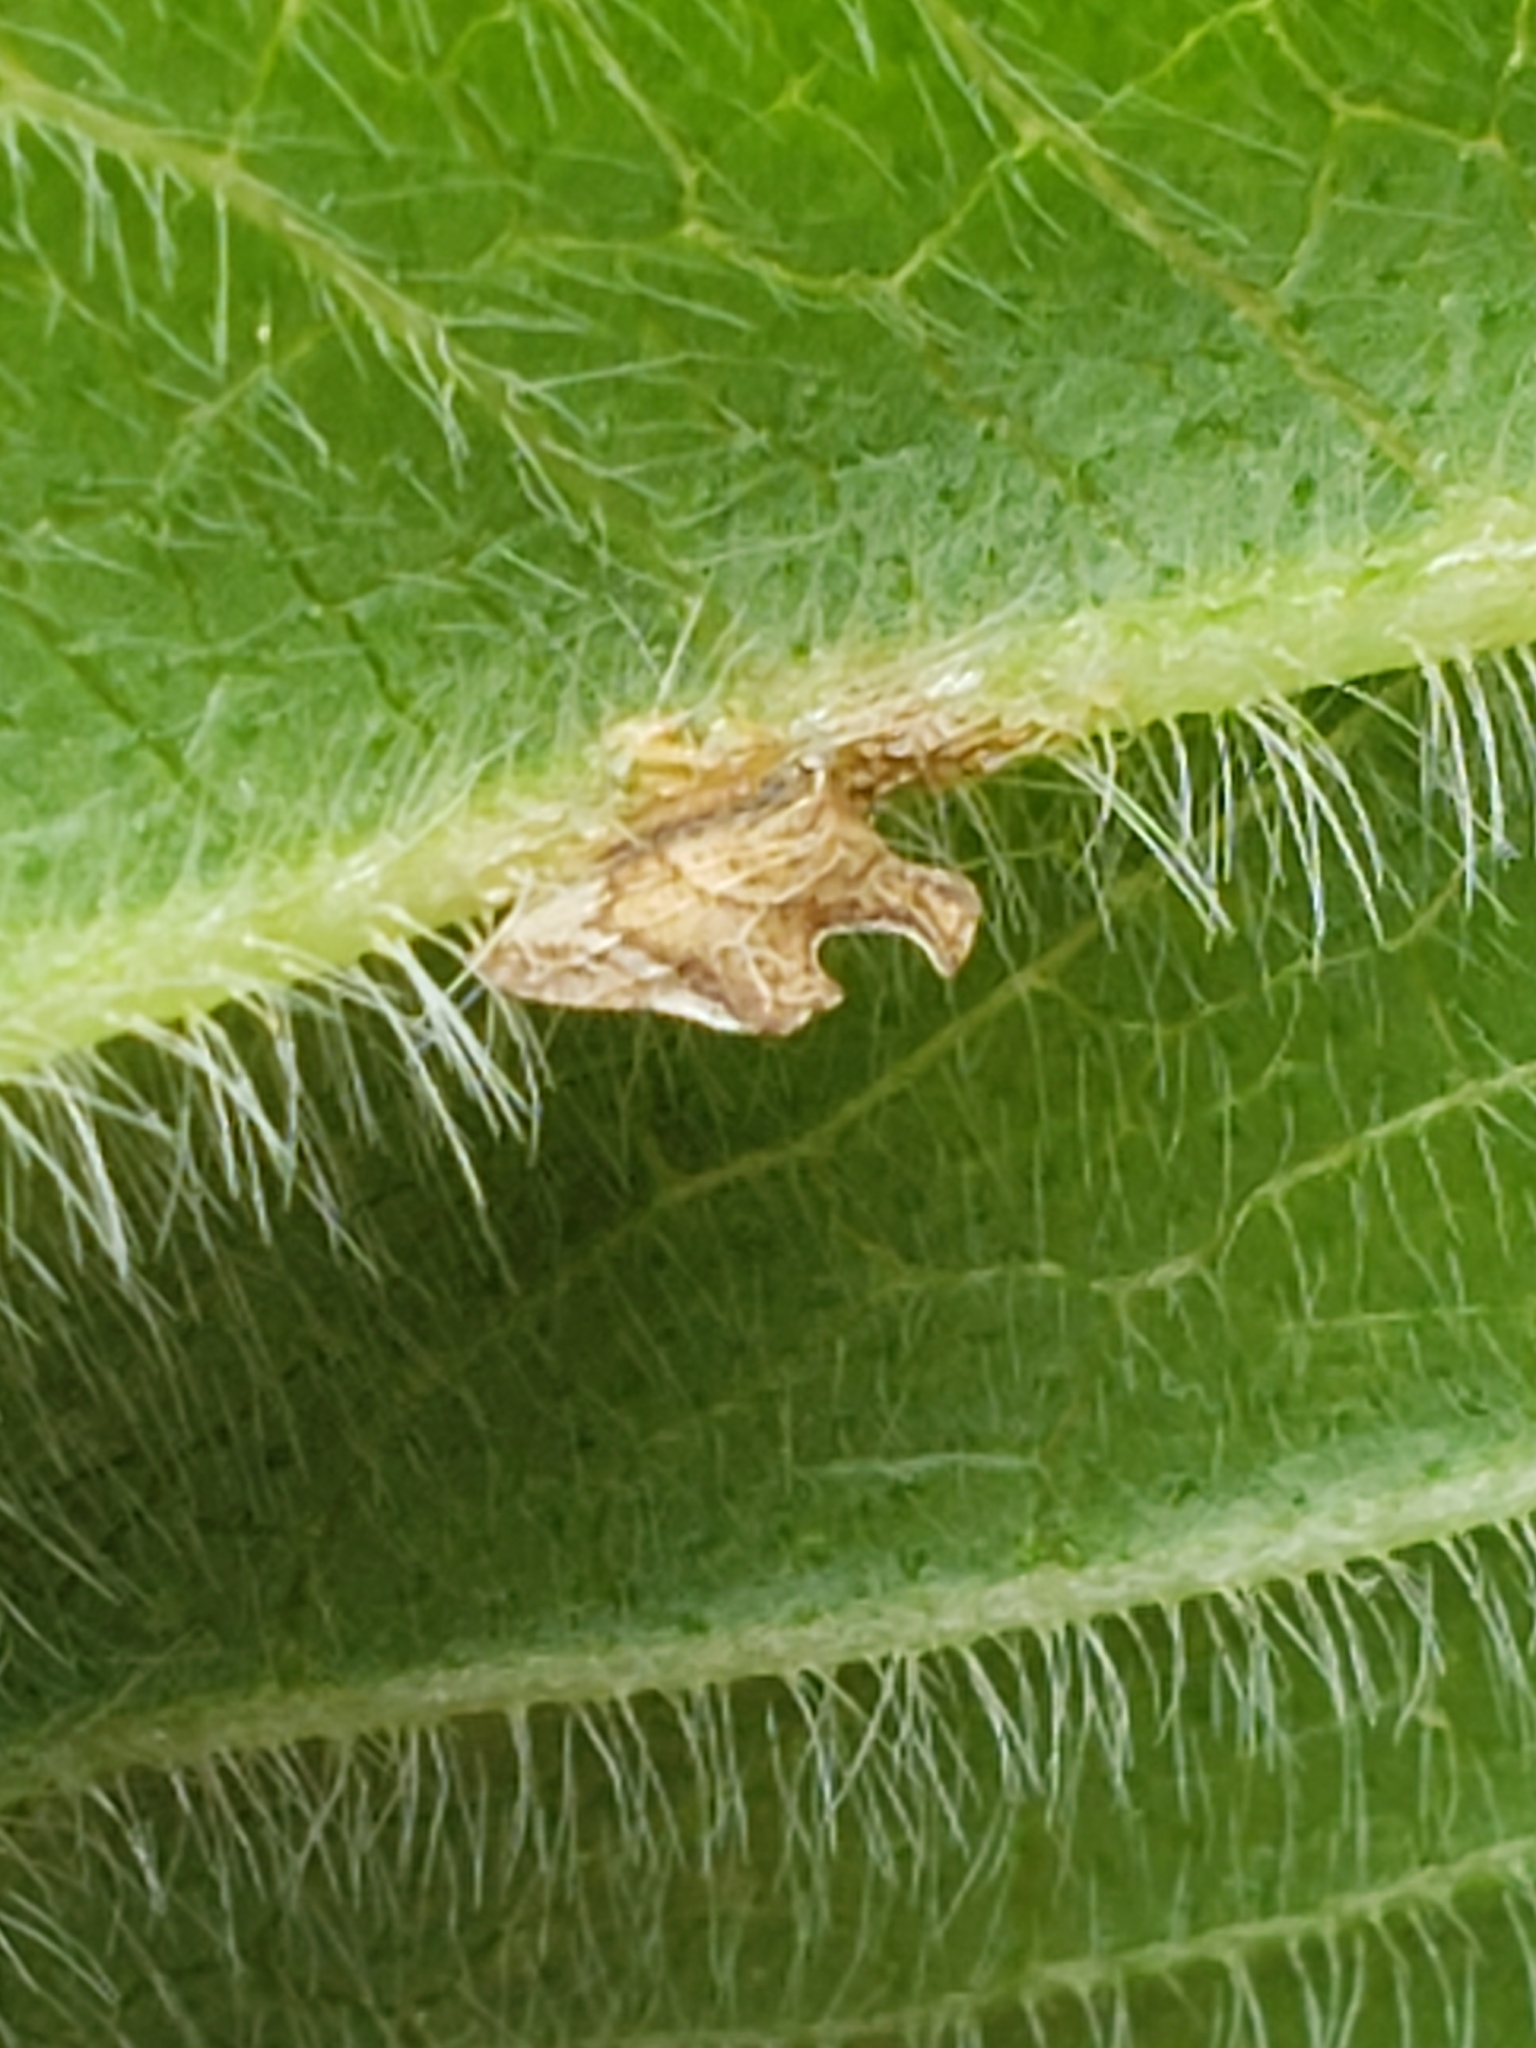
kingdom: Animalia
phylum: Arthropoda
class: Insecta
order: Hemiptera
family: Membracidae
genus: Entylia
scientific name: Entylia carinata
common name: Keeled treehopper
